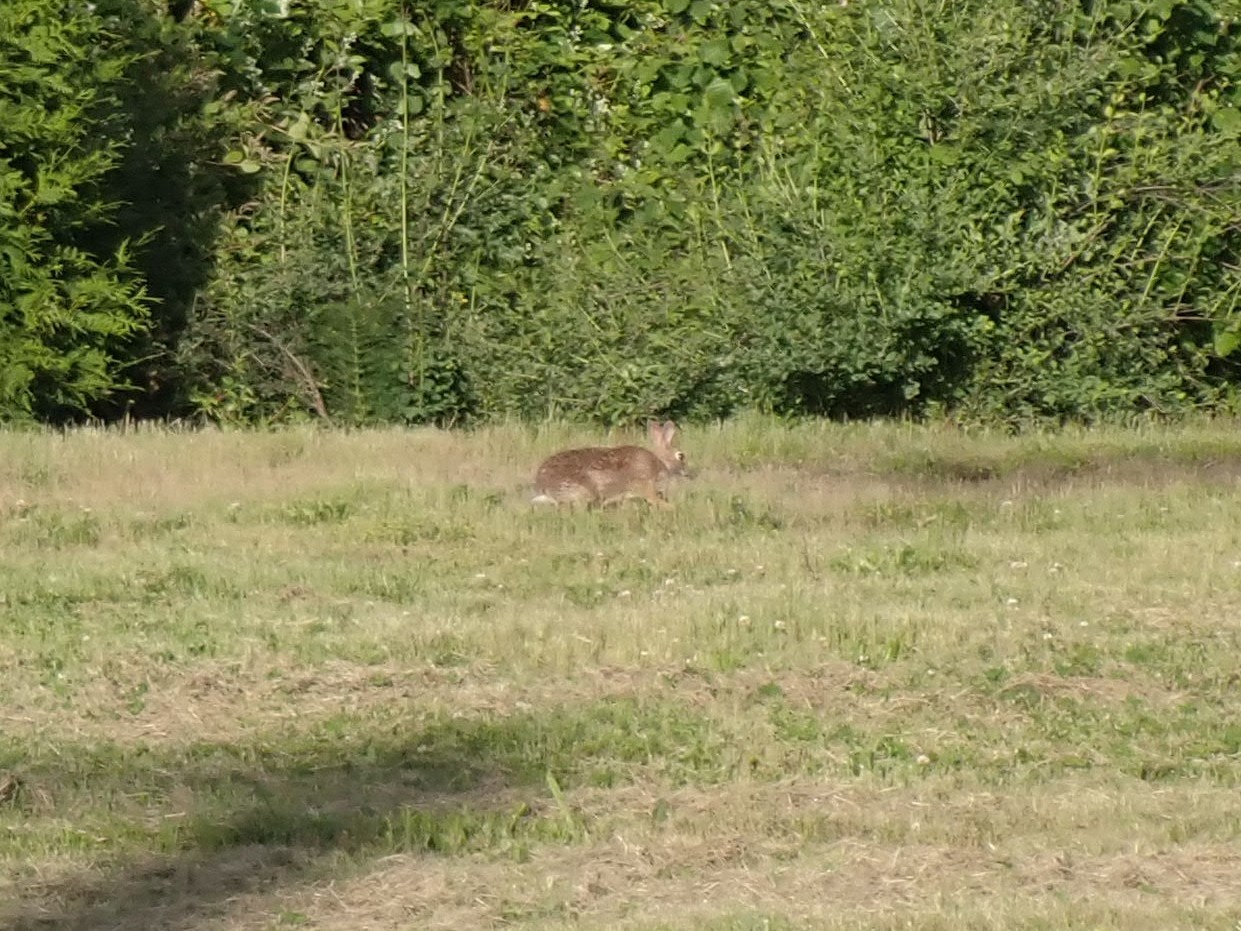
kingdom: Animalia
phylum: Chordata
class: Mammalia
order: Lagomorpha
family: Leporidae
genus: Sylvilagus
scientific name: Sylvilagus floridanus
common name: Eastern cottontail
